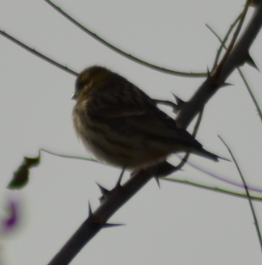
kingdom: Animalia
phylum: Chordata
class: Aves
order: Passeriformes
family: Fringillidae
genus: Serinus
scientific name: Serinus serinus
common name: European serin
